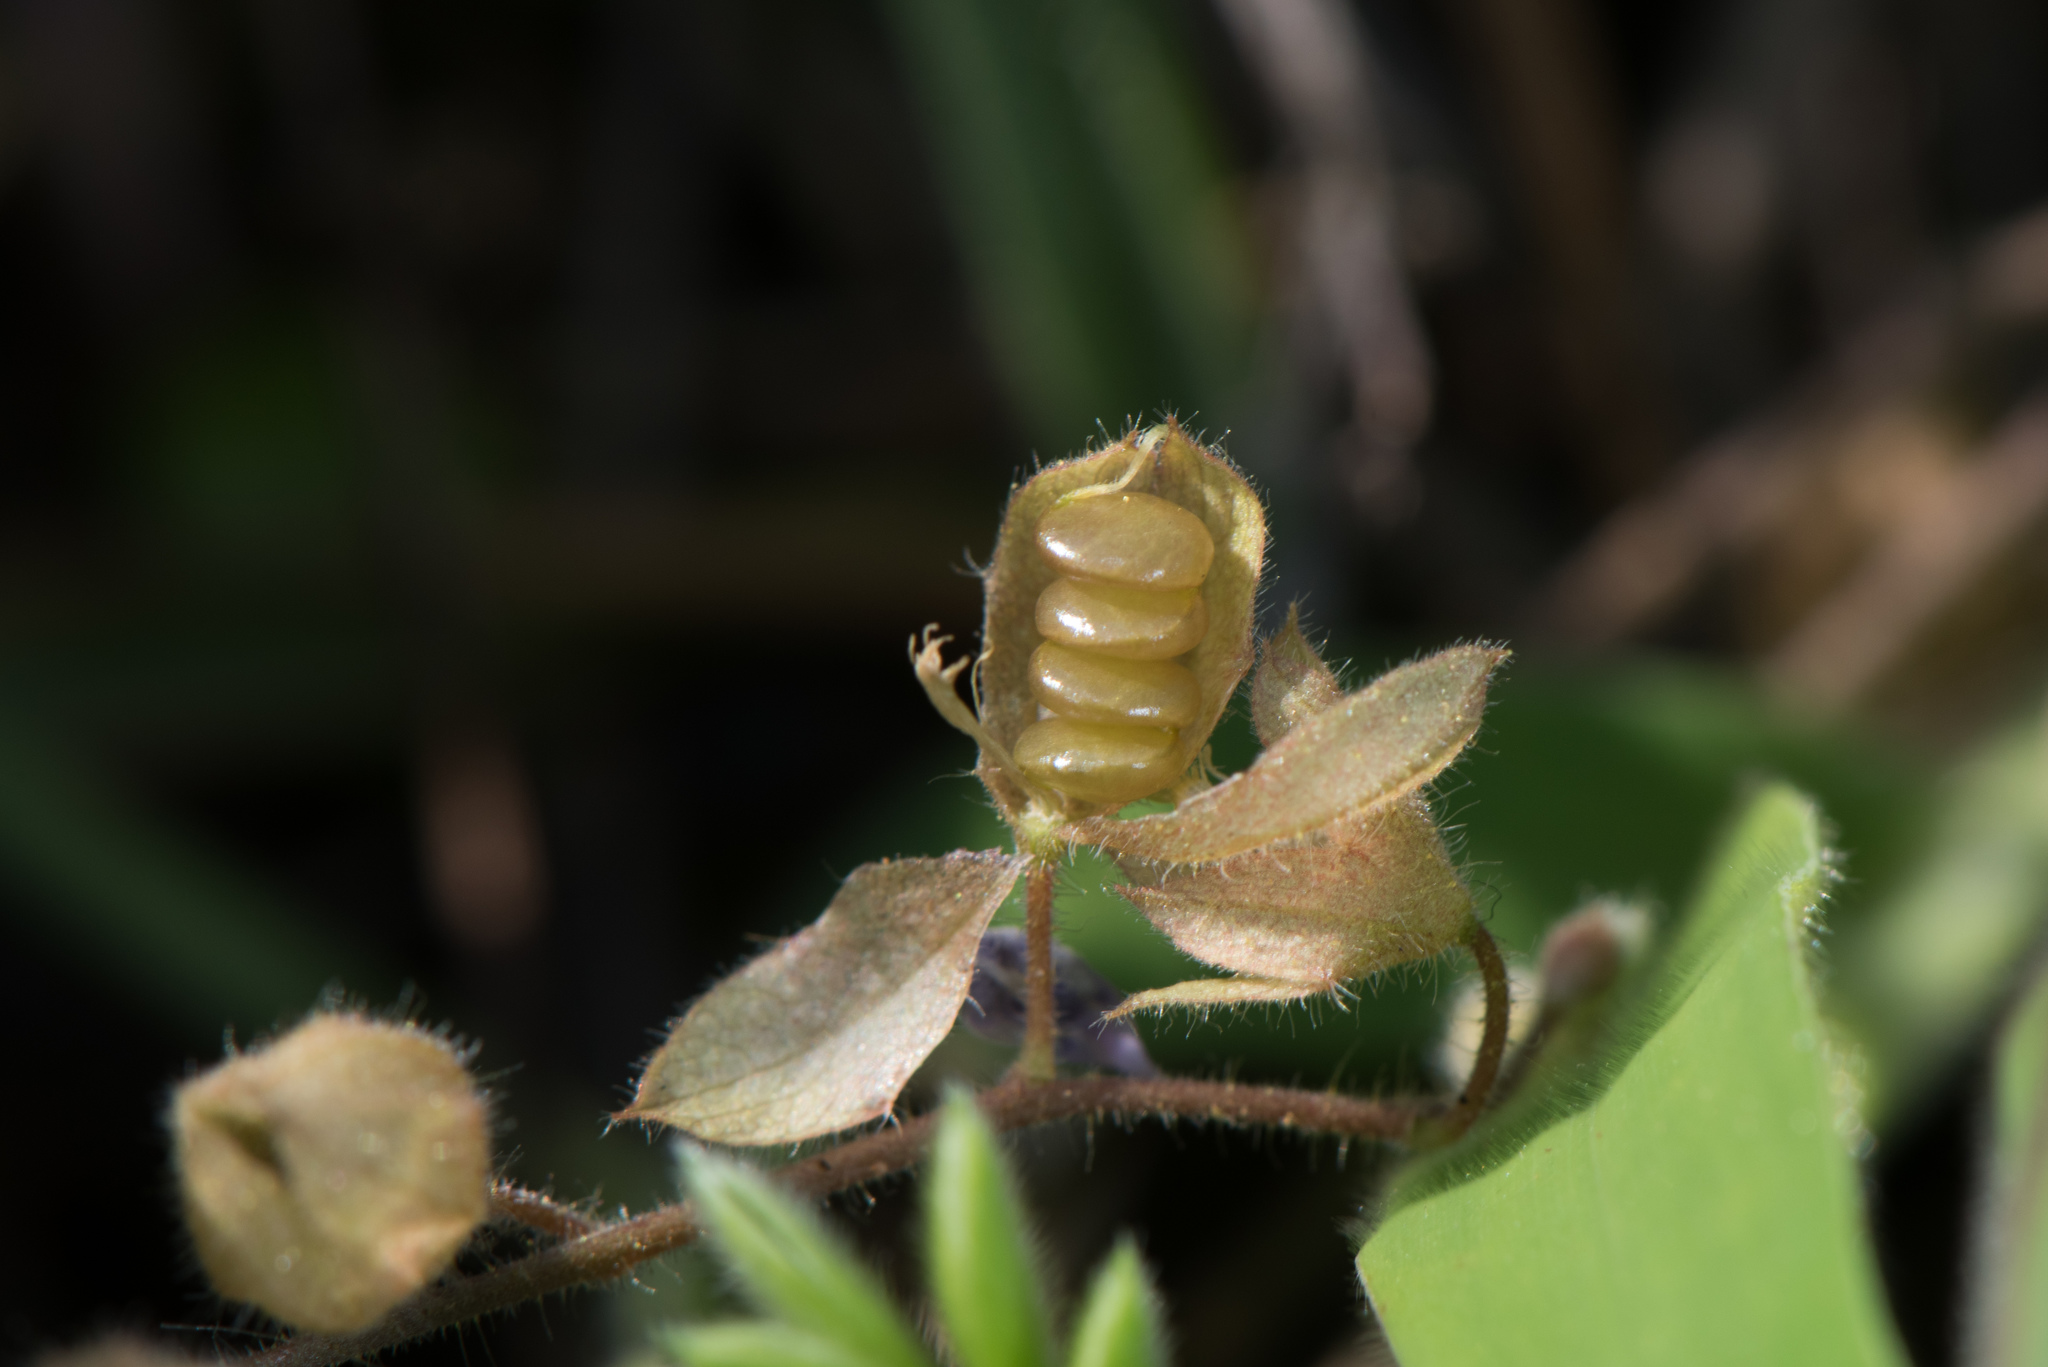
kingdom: Plantae
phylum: Tracheophyta
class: Magnoliopsida
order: Fabales
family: Fabaceae
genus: Christia
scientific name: Christia obcordata
